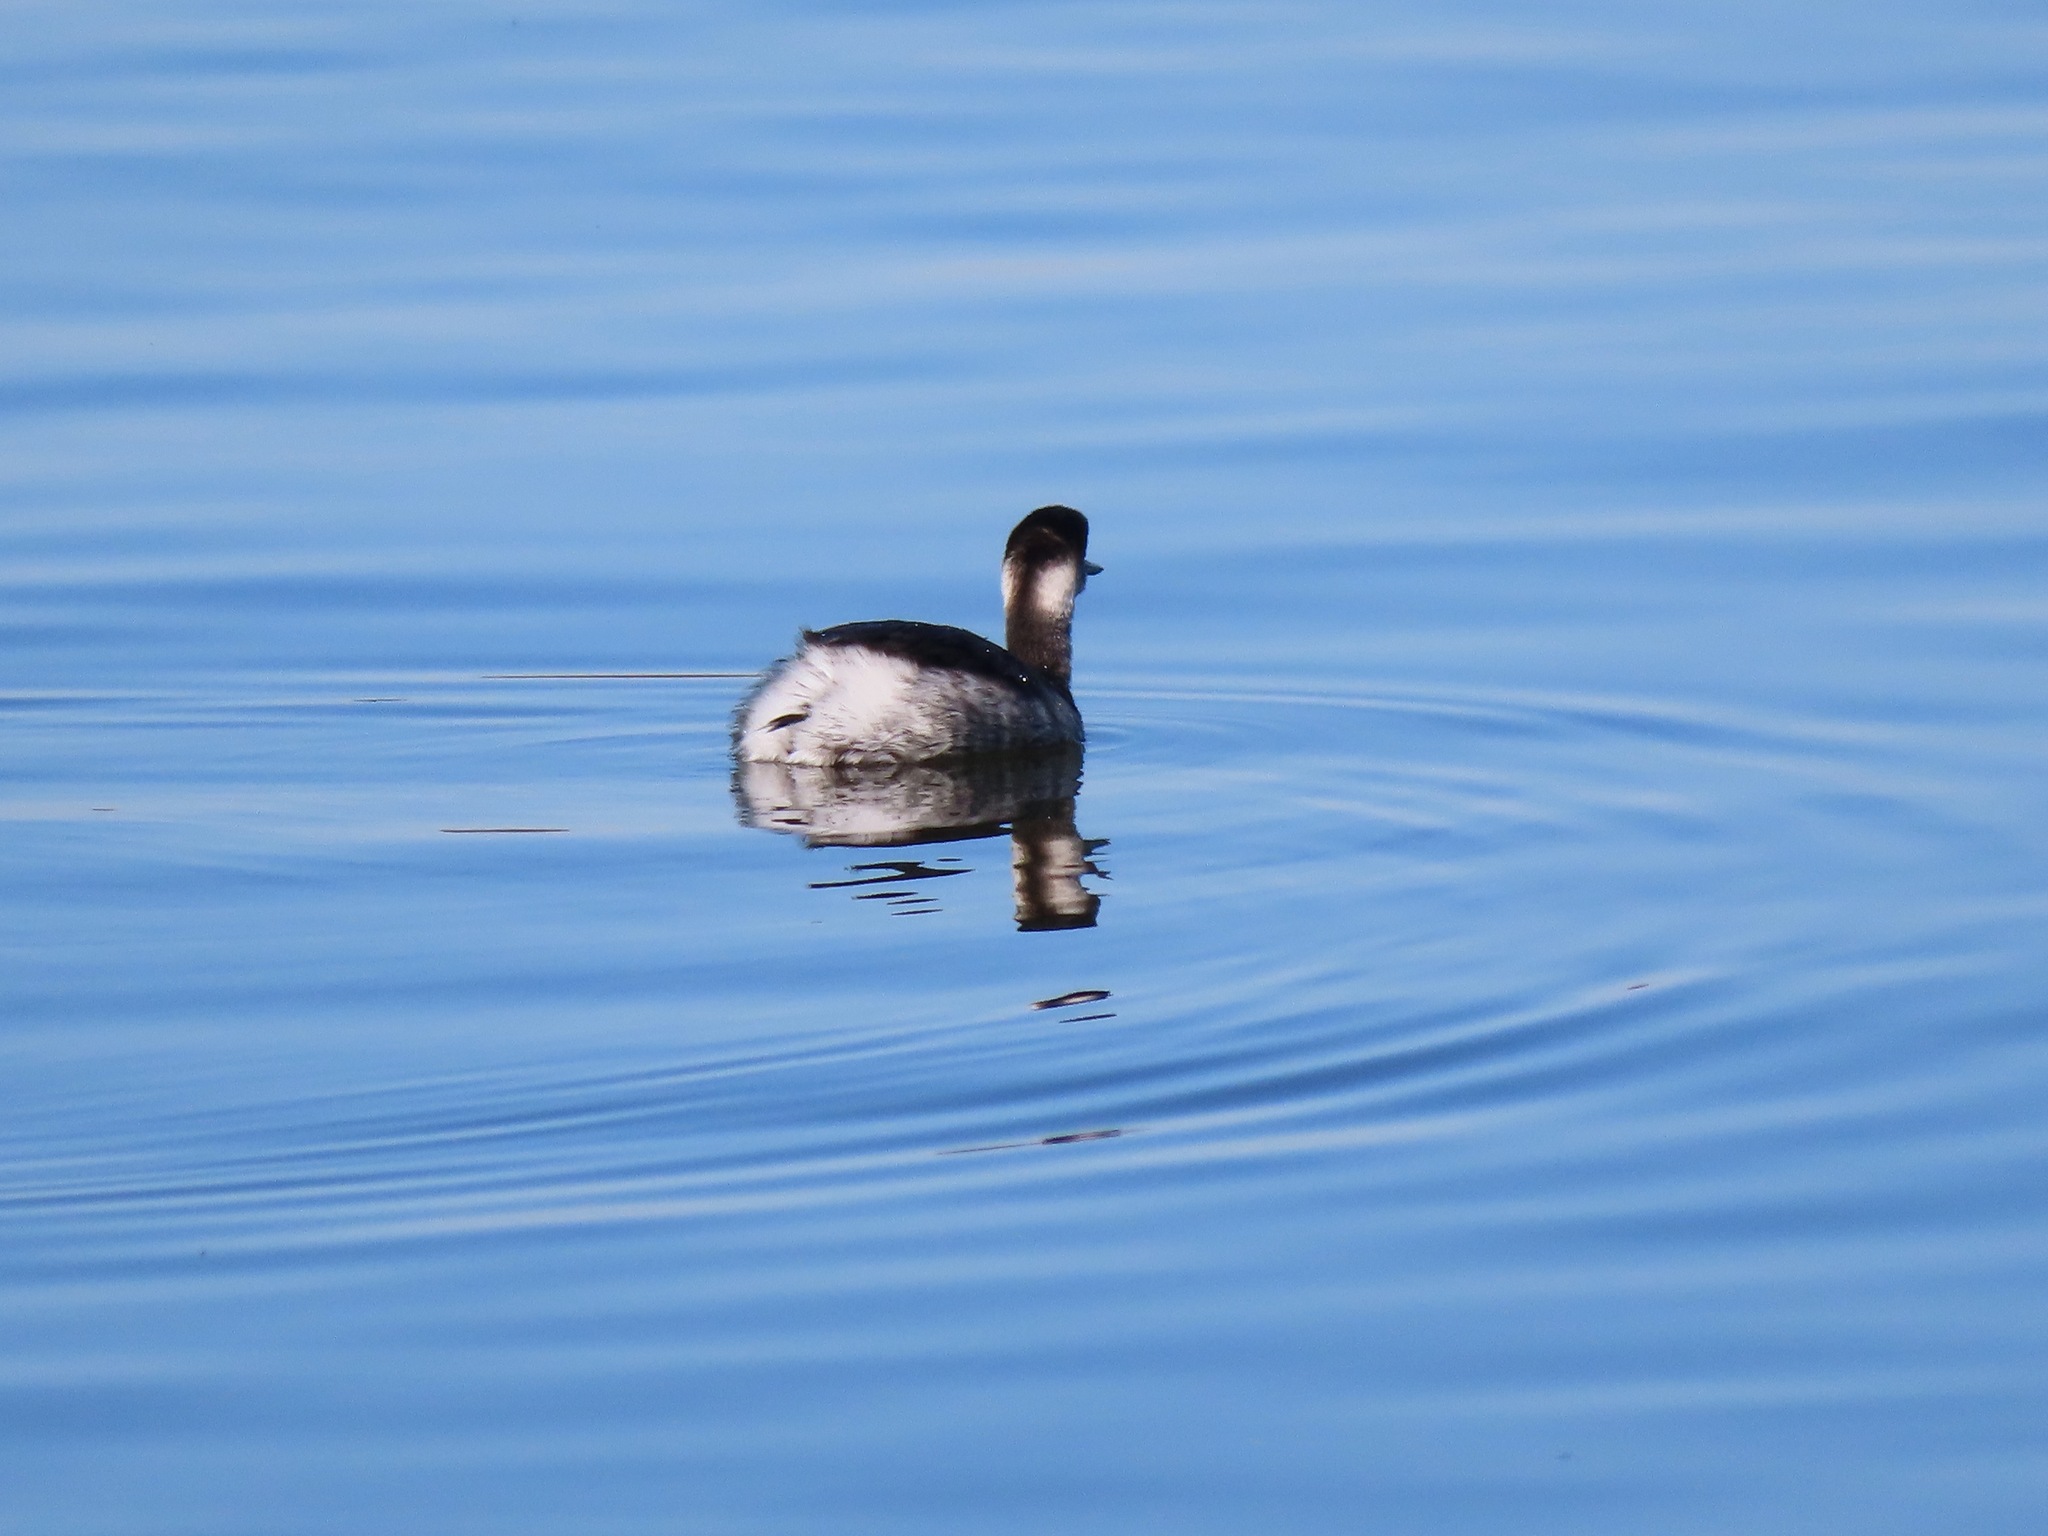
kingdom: Animalia
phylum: Chordata
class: Aves
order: Podicipediformes
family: Podicipedidae
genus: Podiceps
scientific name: Podiceps nigricollis
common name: Black-necked grebe
